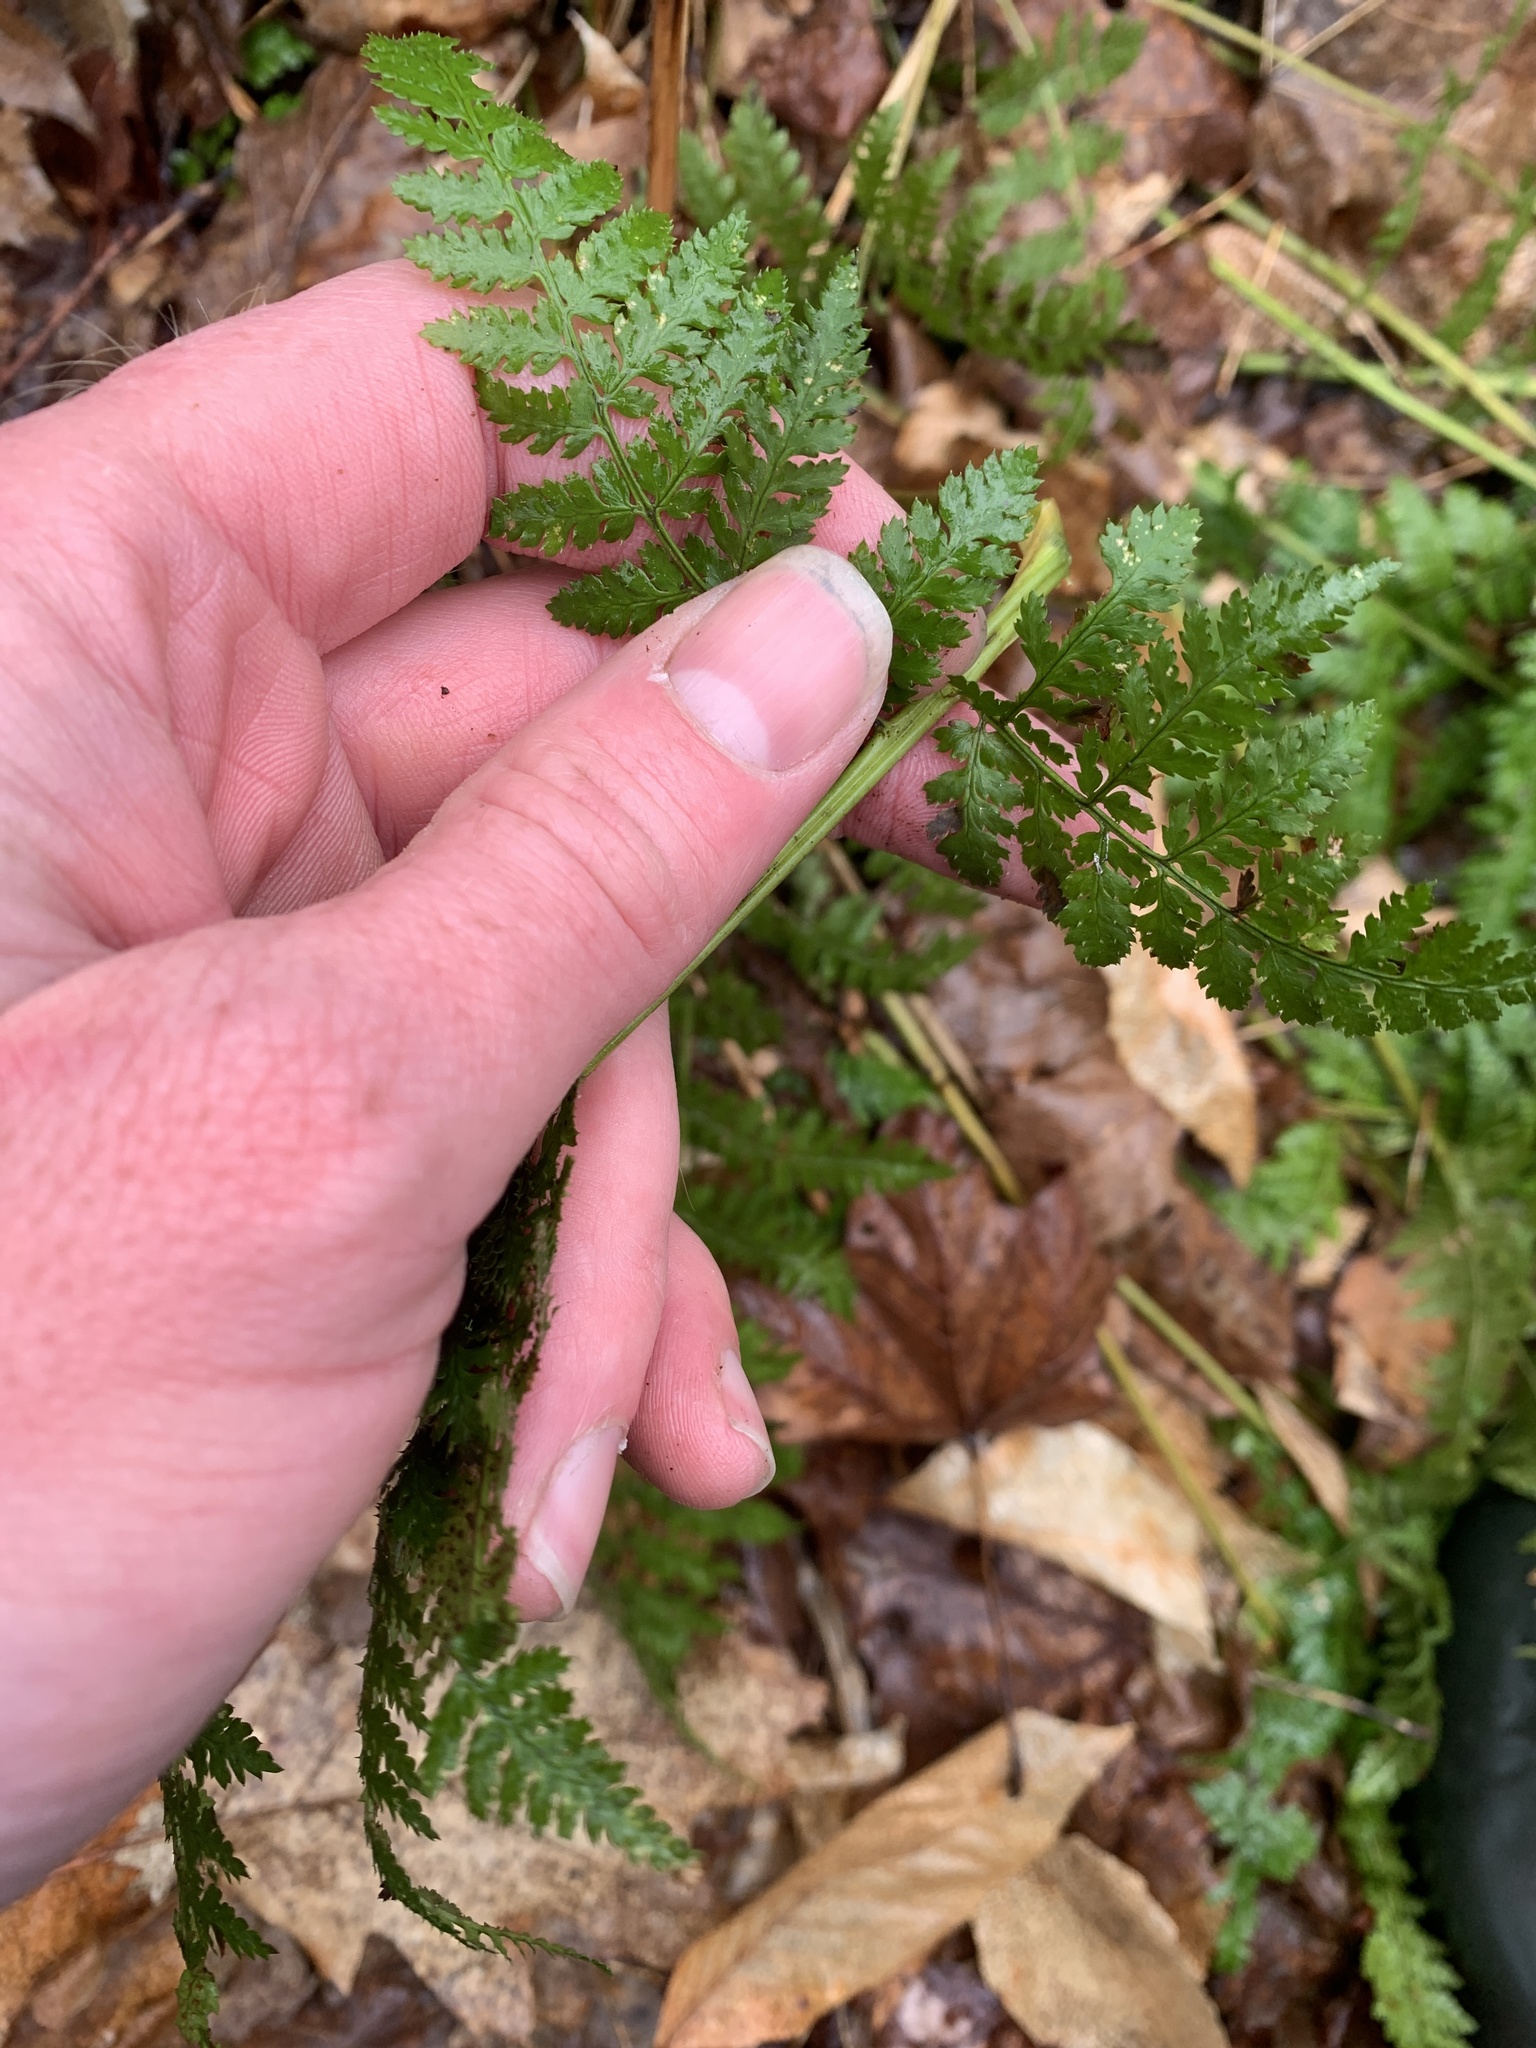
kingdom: Plantae
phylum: Tracheophyta
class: Polypodiopsida
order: Polypodiales
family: Dryopteridaceae
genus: Dryopteris
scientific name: Dryopteris intermedia
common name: Evergreen wood fern
